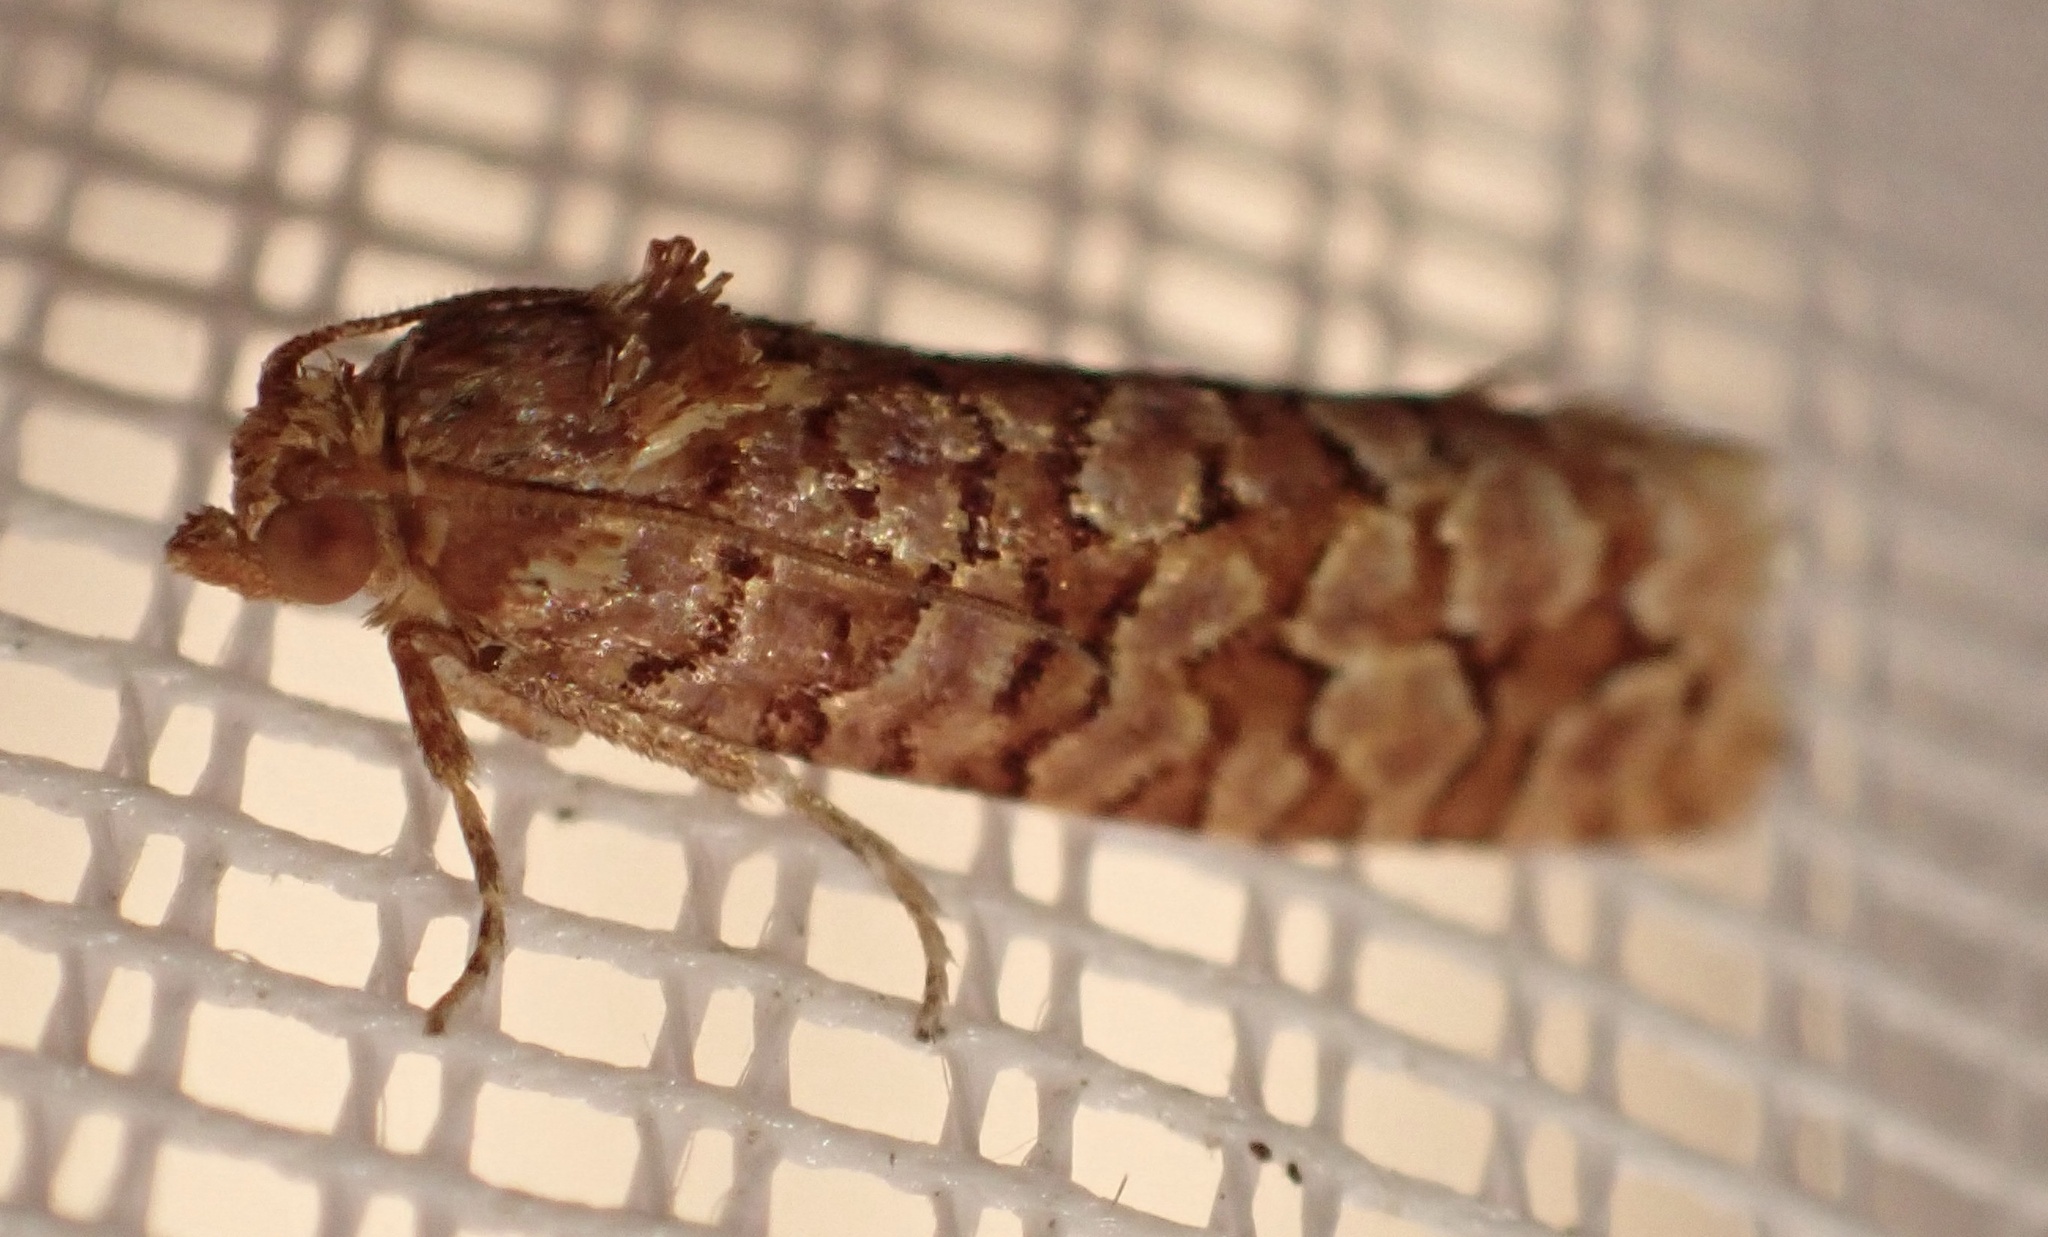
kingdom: Animalia
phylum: Arthropoda
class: Insecta
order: Lepidoptera
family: Tortricidae
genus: Lozotaeniodes
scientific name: Lozotaeniodes formosana
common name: Orange pine twist
